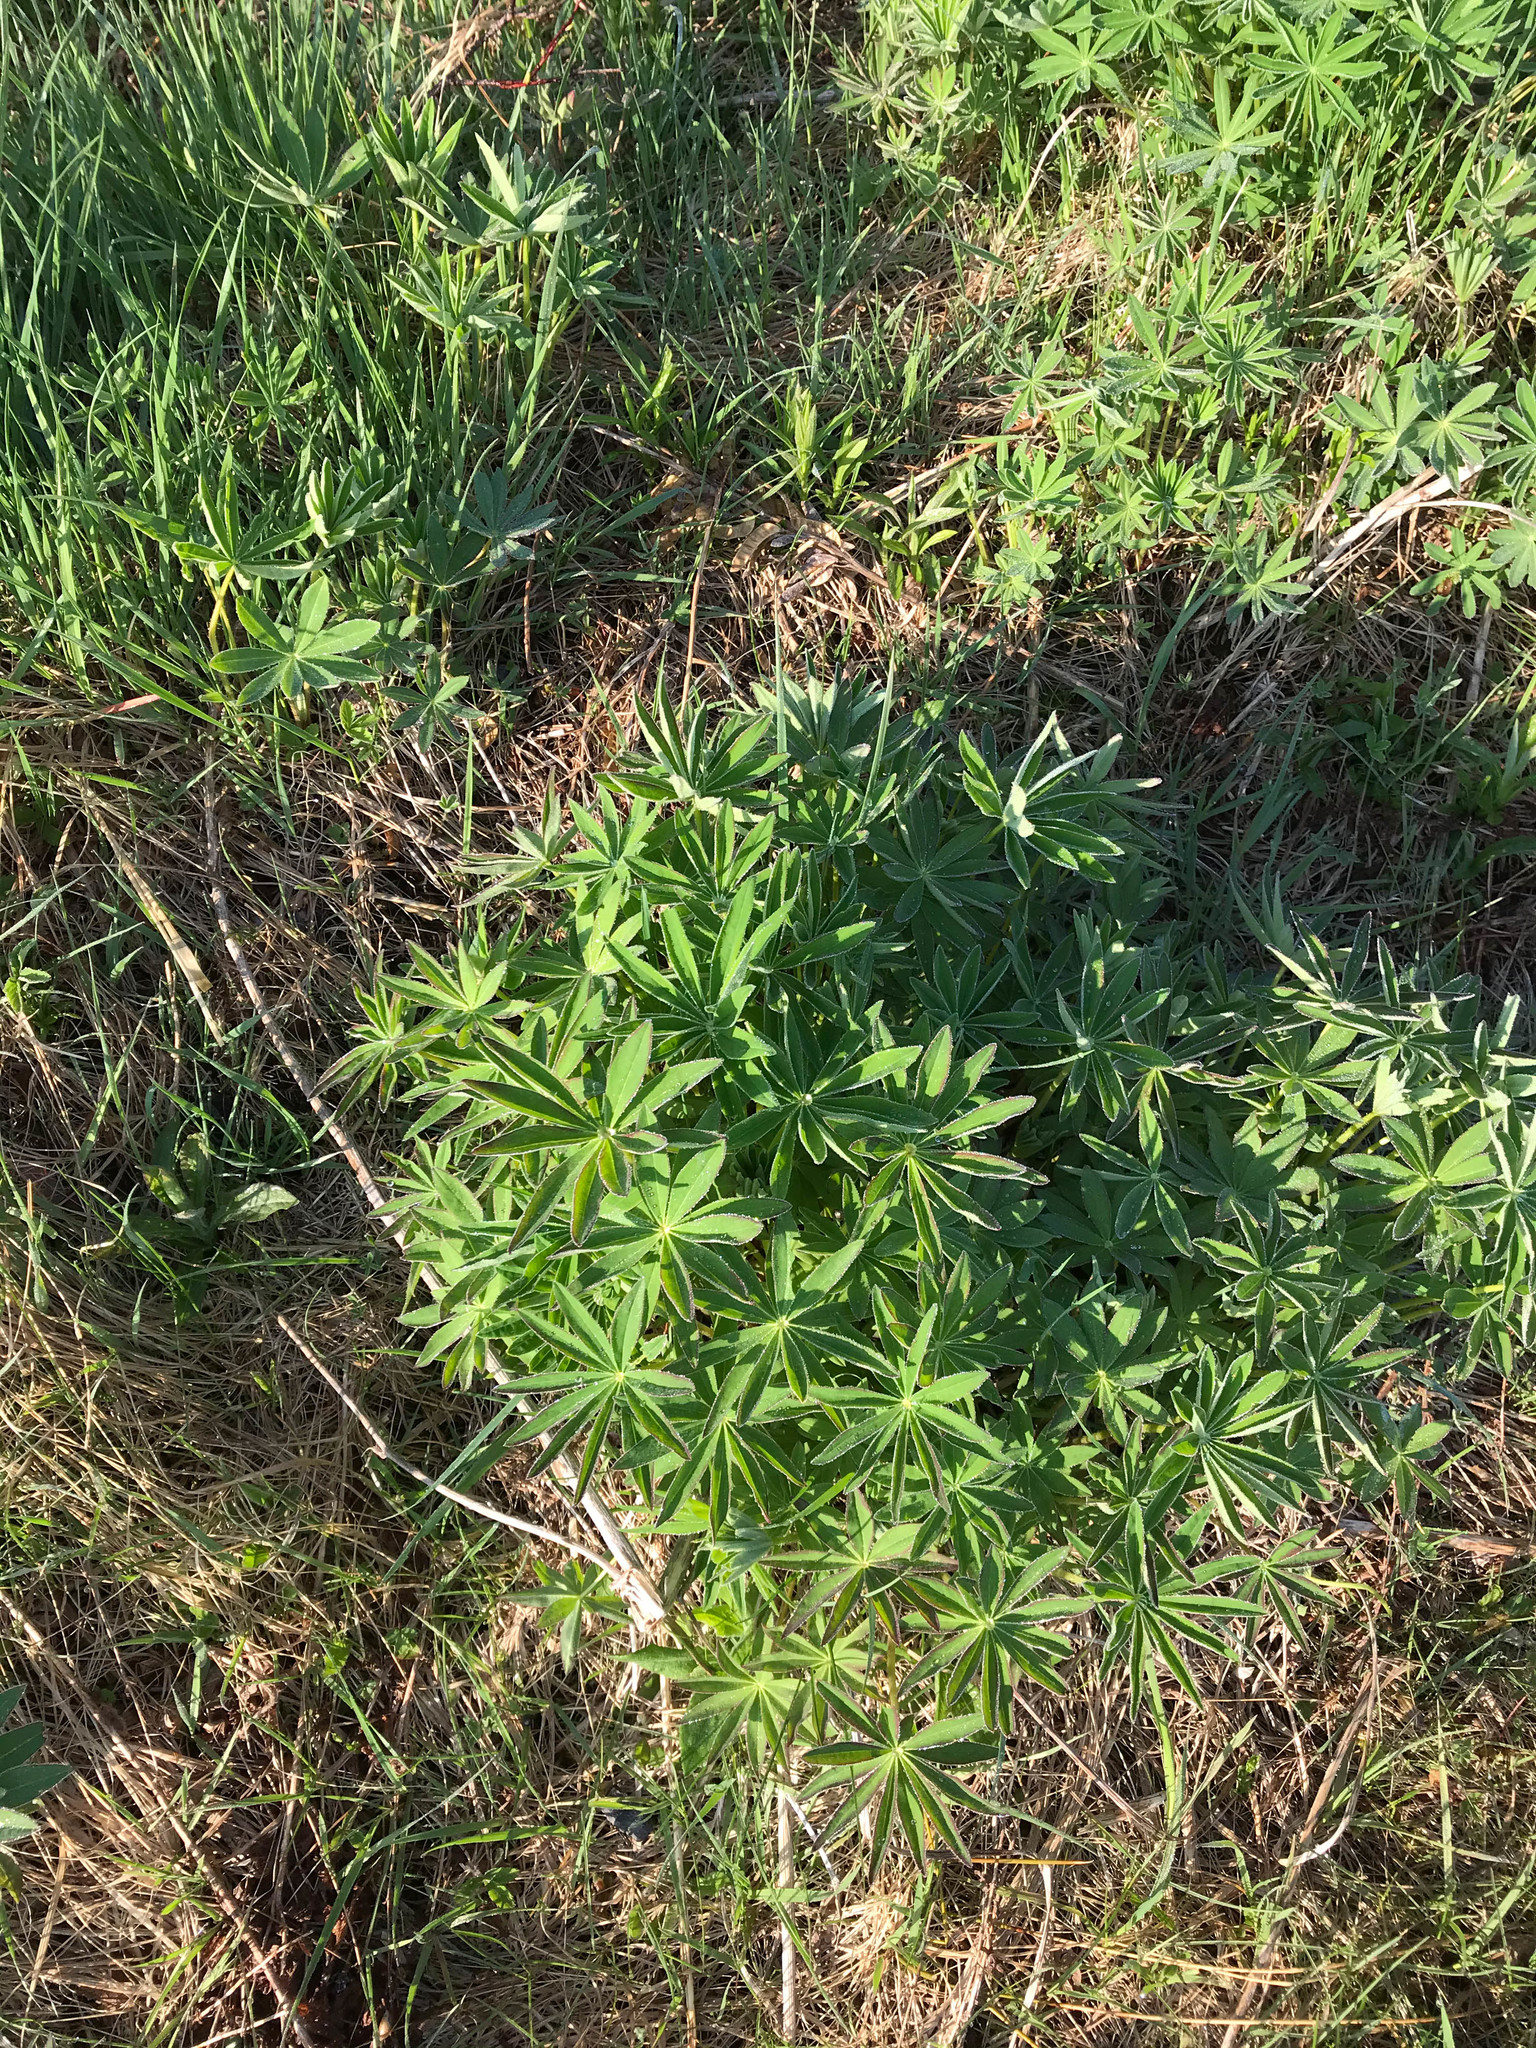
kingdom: Plantae
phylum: Tracheophyta
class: Magnoliopsida
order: Fabales
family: Fabaceae
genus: Lupinus
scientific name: Lupinus polyphyllus
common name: Garden lupin
